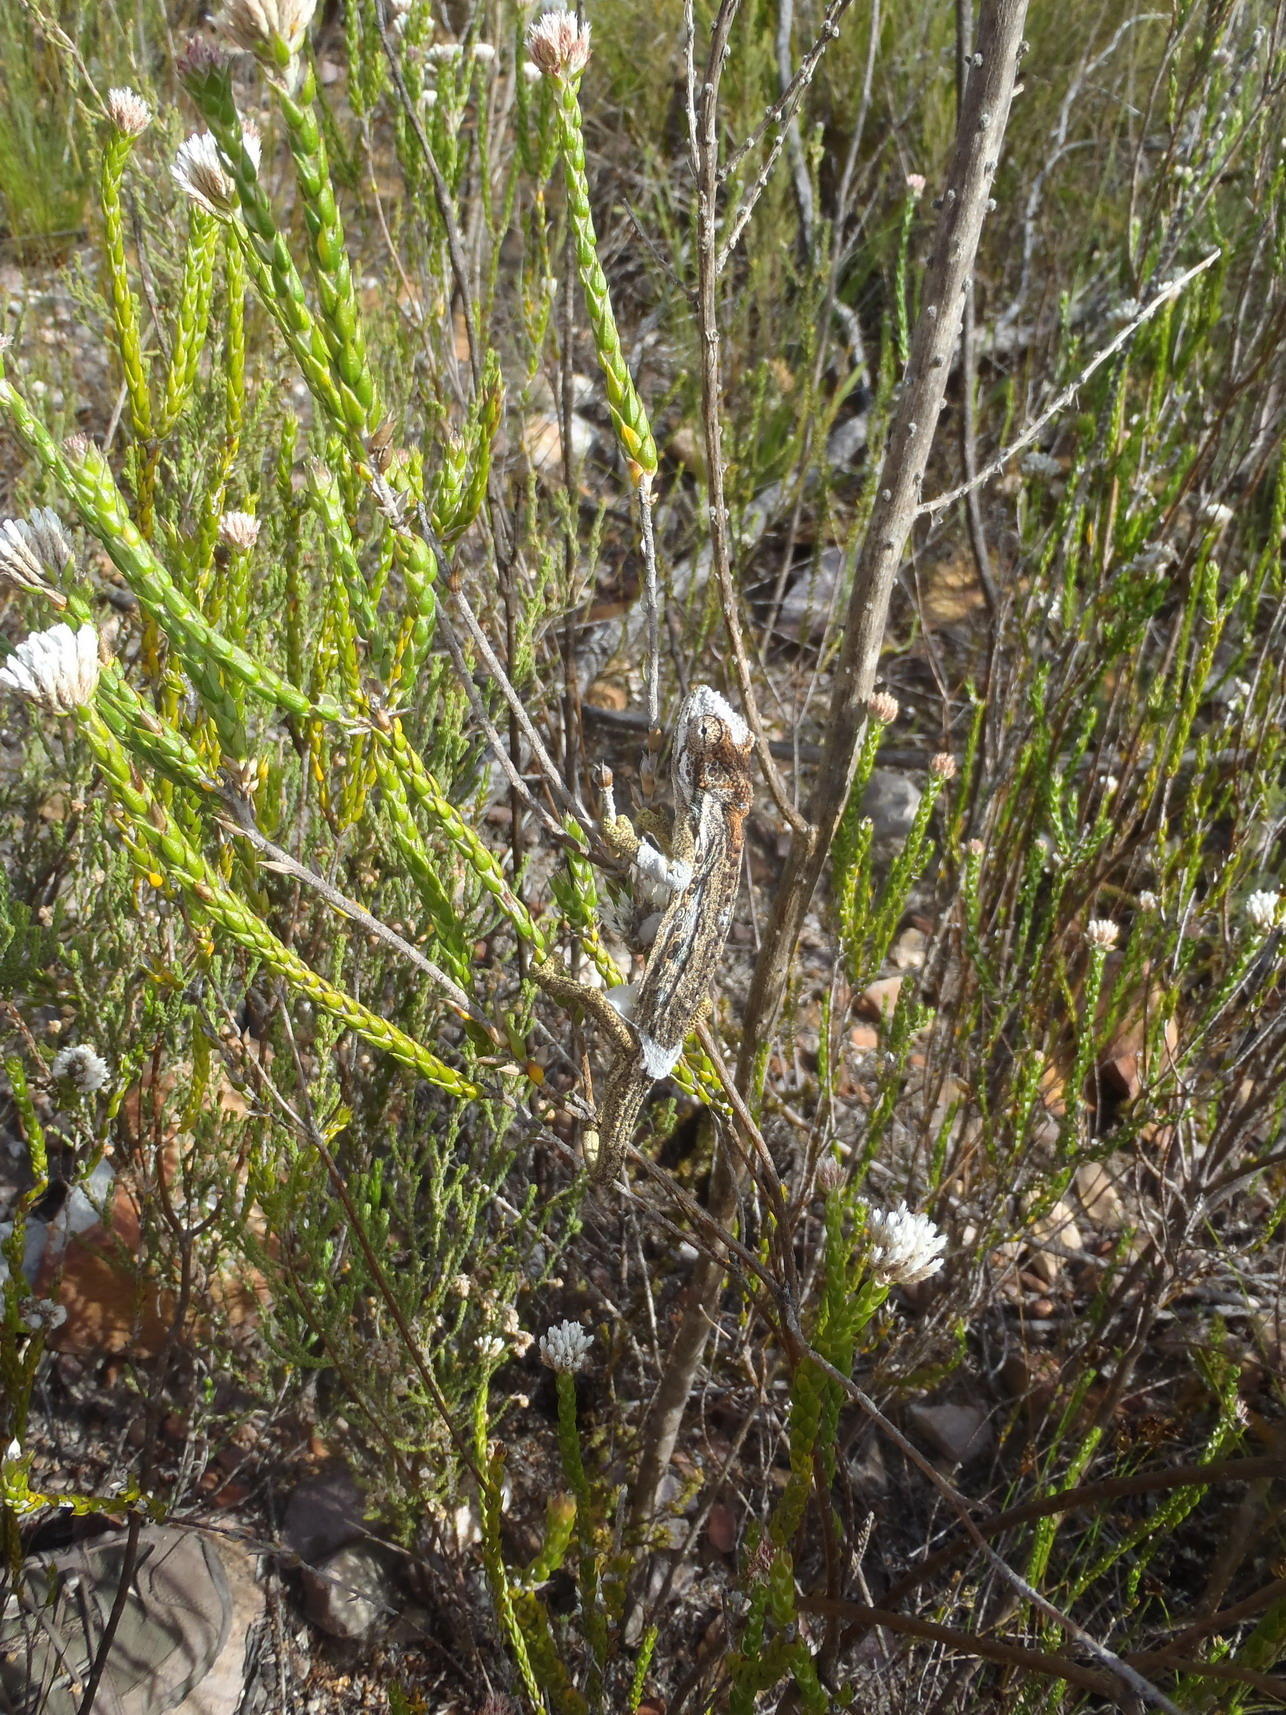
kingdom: Animalia
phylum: Chordata
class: Squamata
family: Chamaeleonidae
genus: Bradypodion
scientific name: Bradypodion gutturale
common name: Little karoo dwarf chameleon
